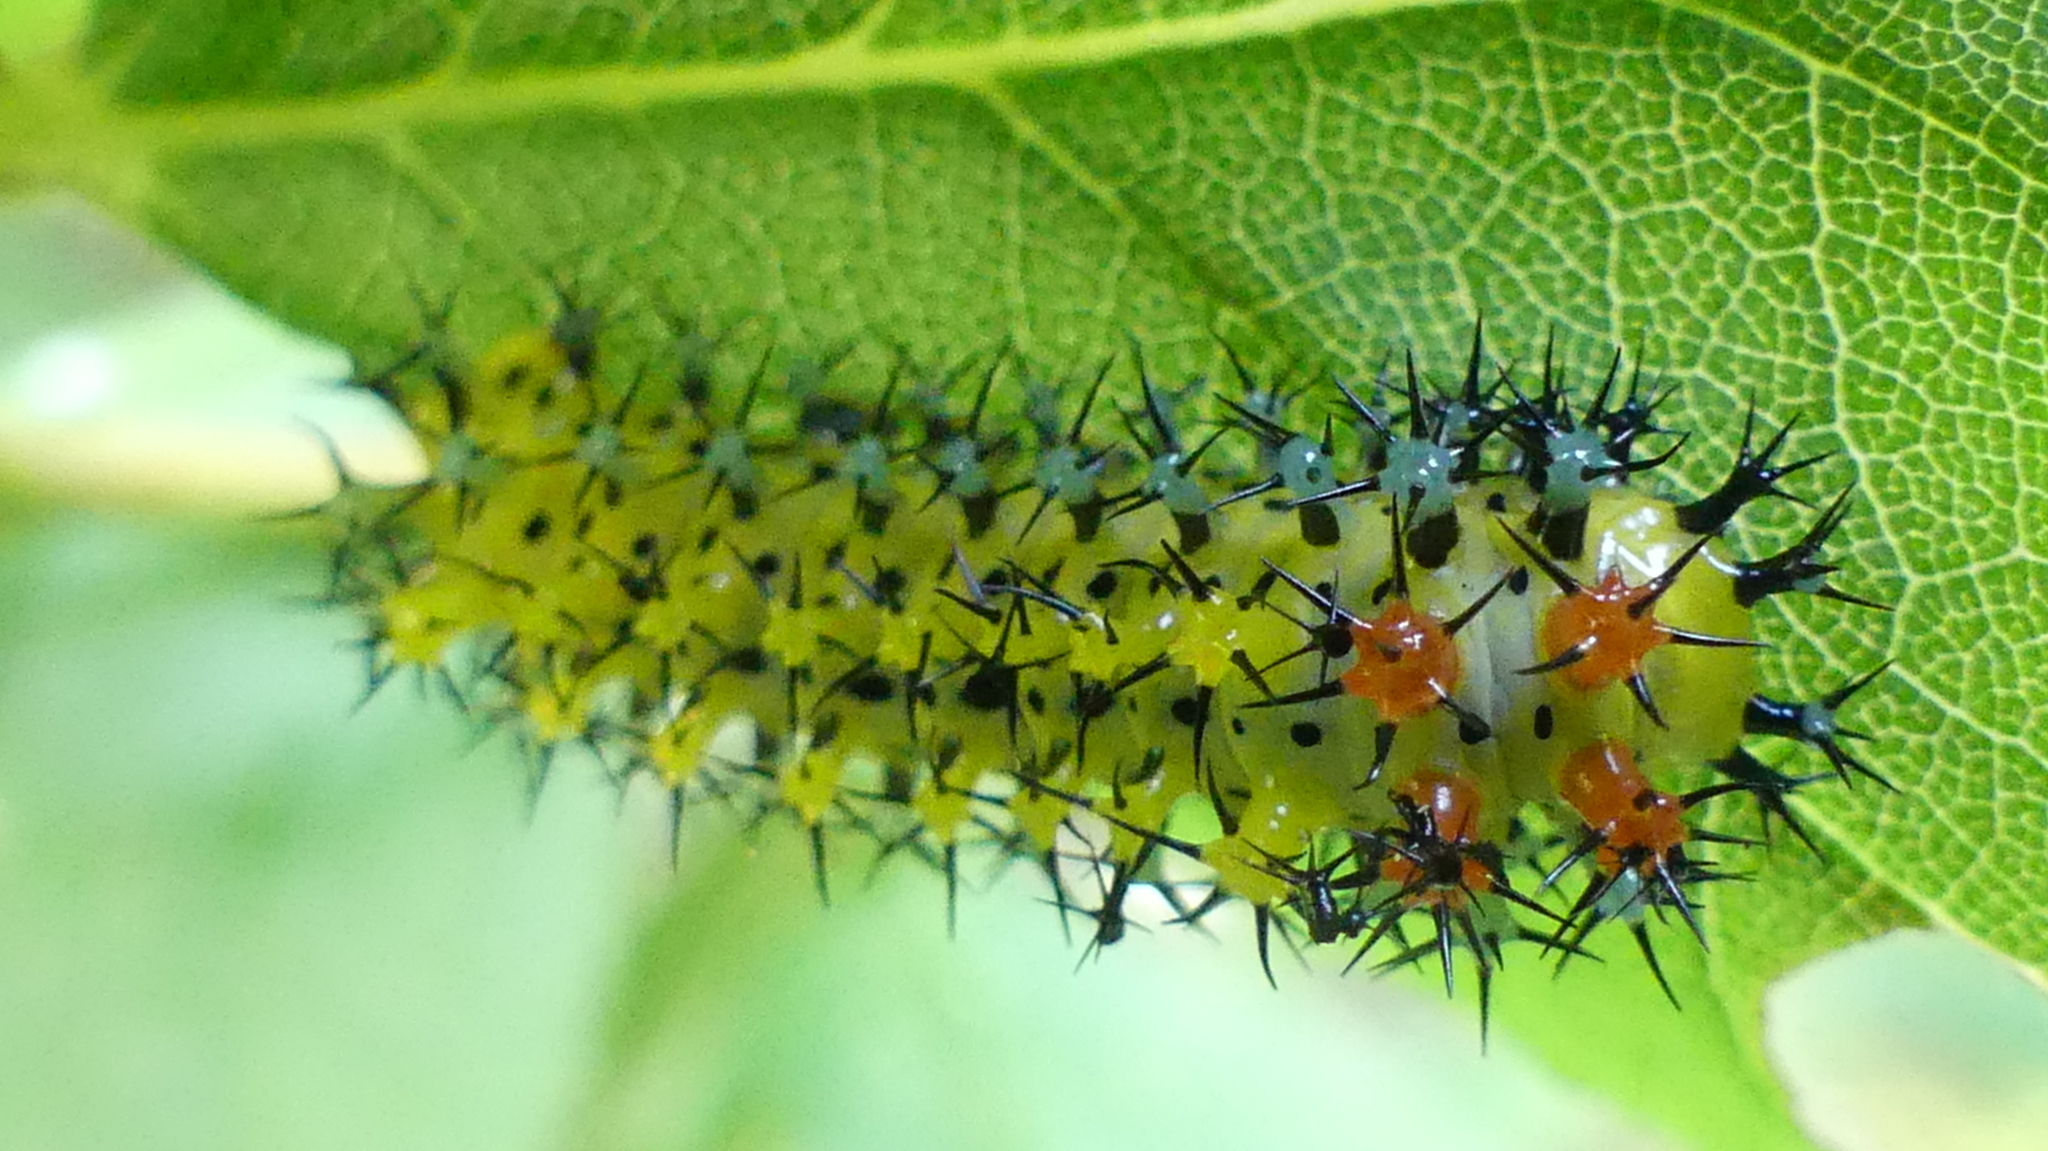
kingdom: Animalia
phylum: Arthropoda
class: Insecta
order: Lepidoptera
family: Saturniidae
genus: Hyalophora
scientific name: Hyalophora cecropia
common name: Cecropia silkmoth
